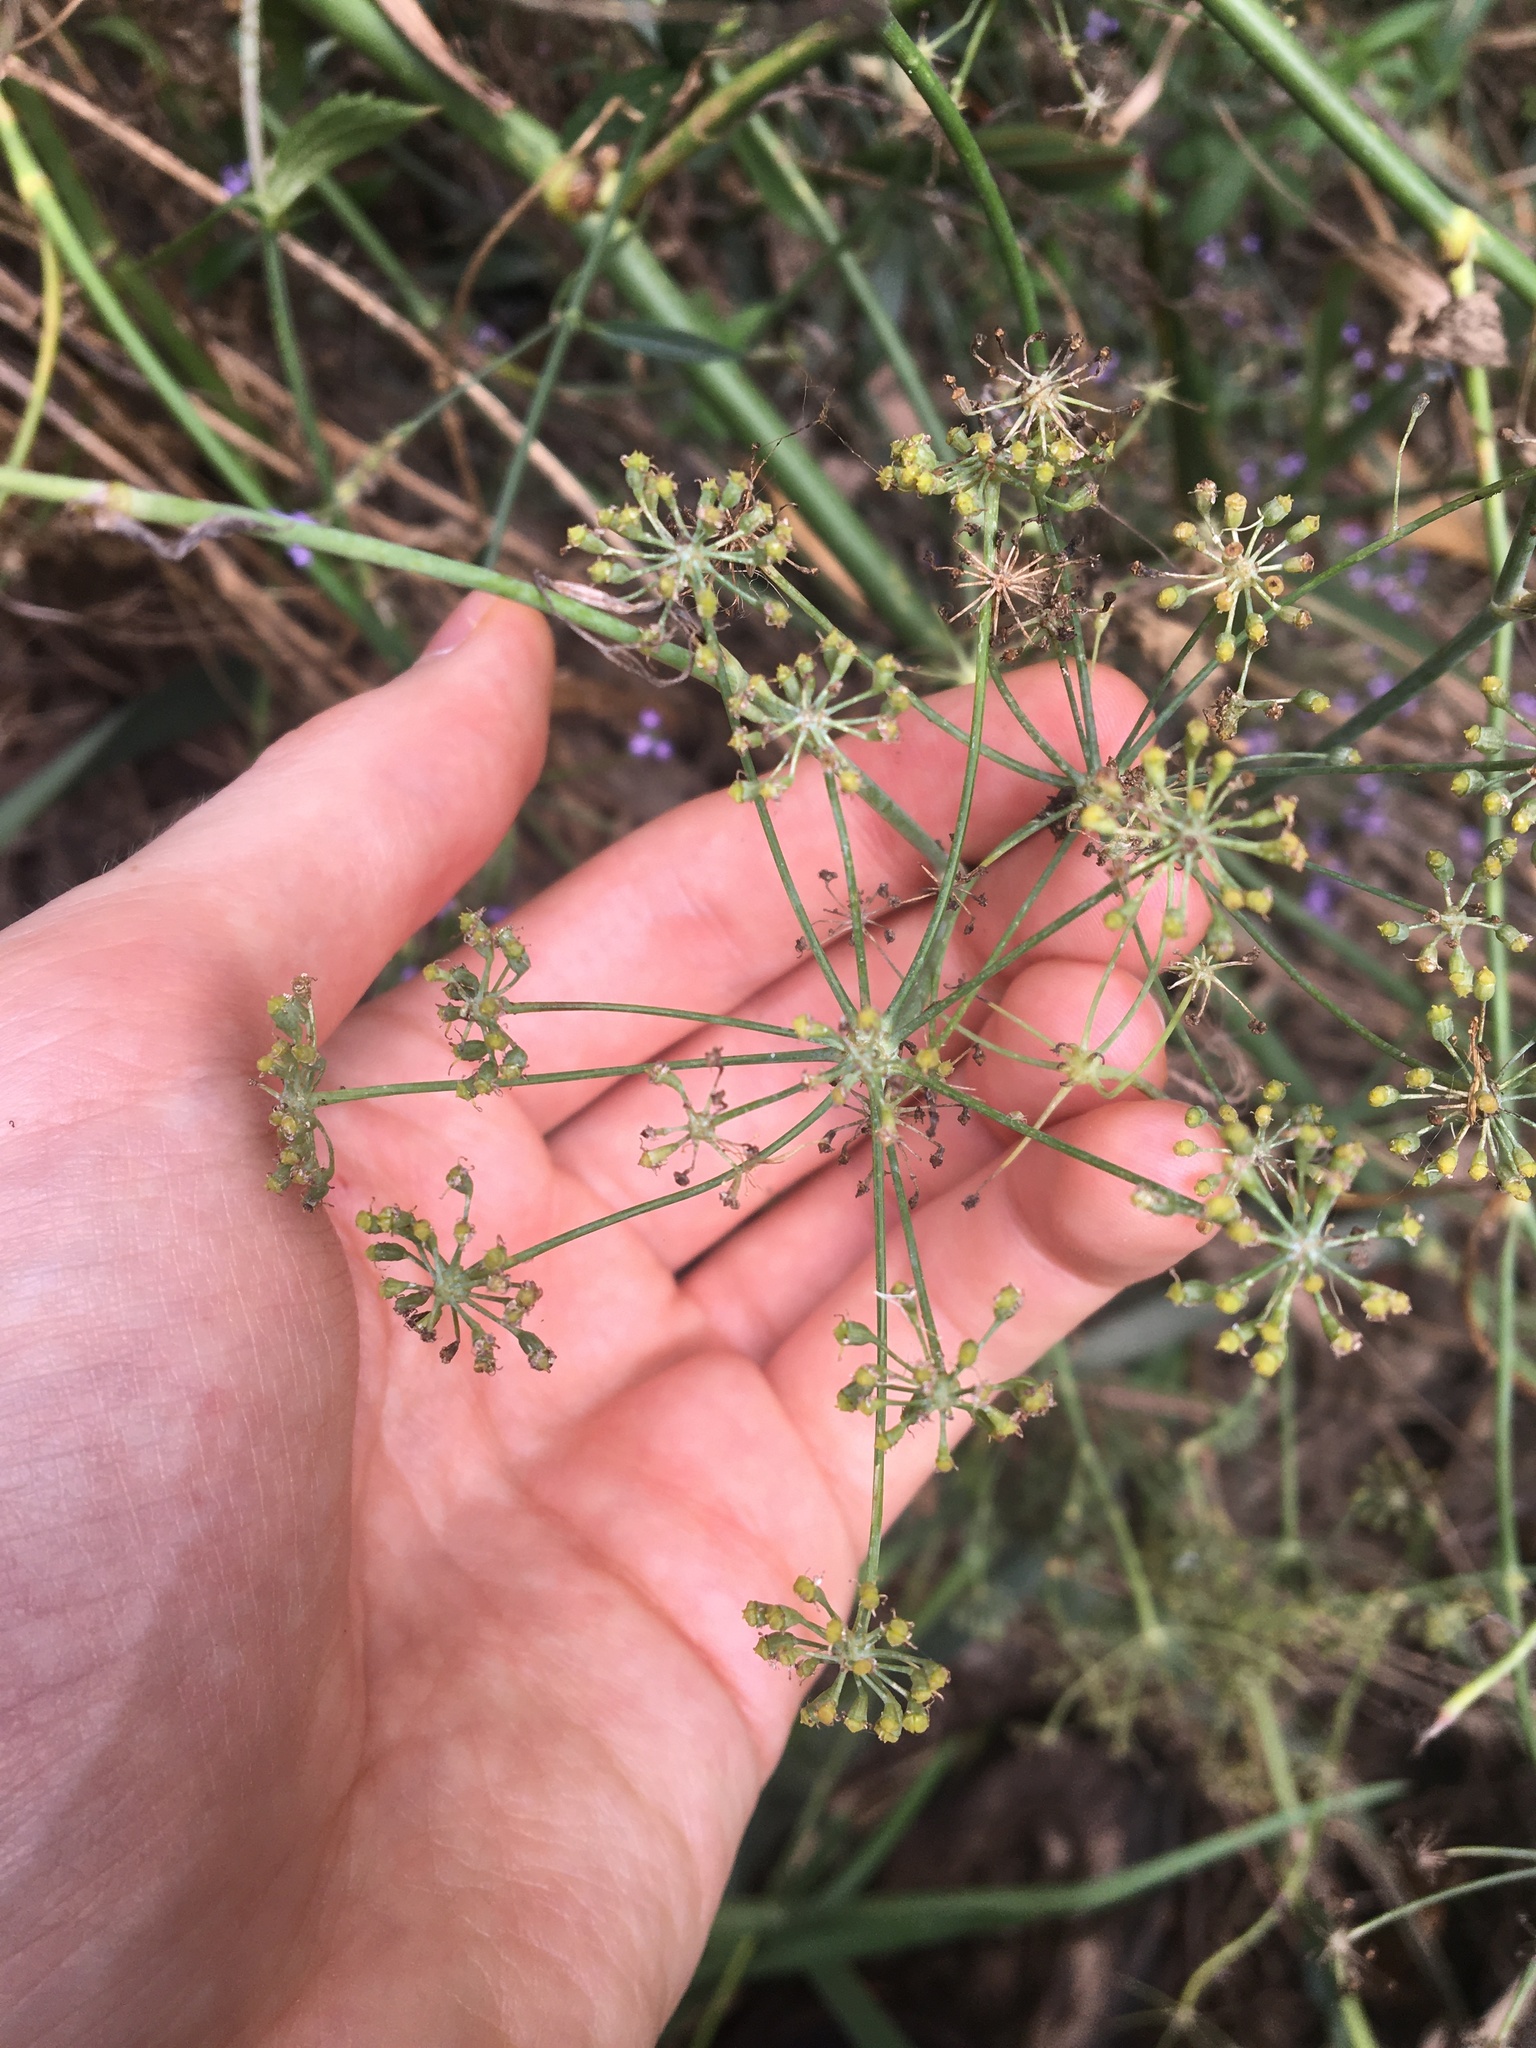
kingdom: Plantae
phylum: Tracheophyta
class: Magnoliopsida
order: Apiales
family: Apiaceae
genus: Foeniculum
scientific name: Foeniculum vulgare
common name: Fennel
